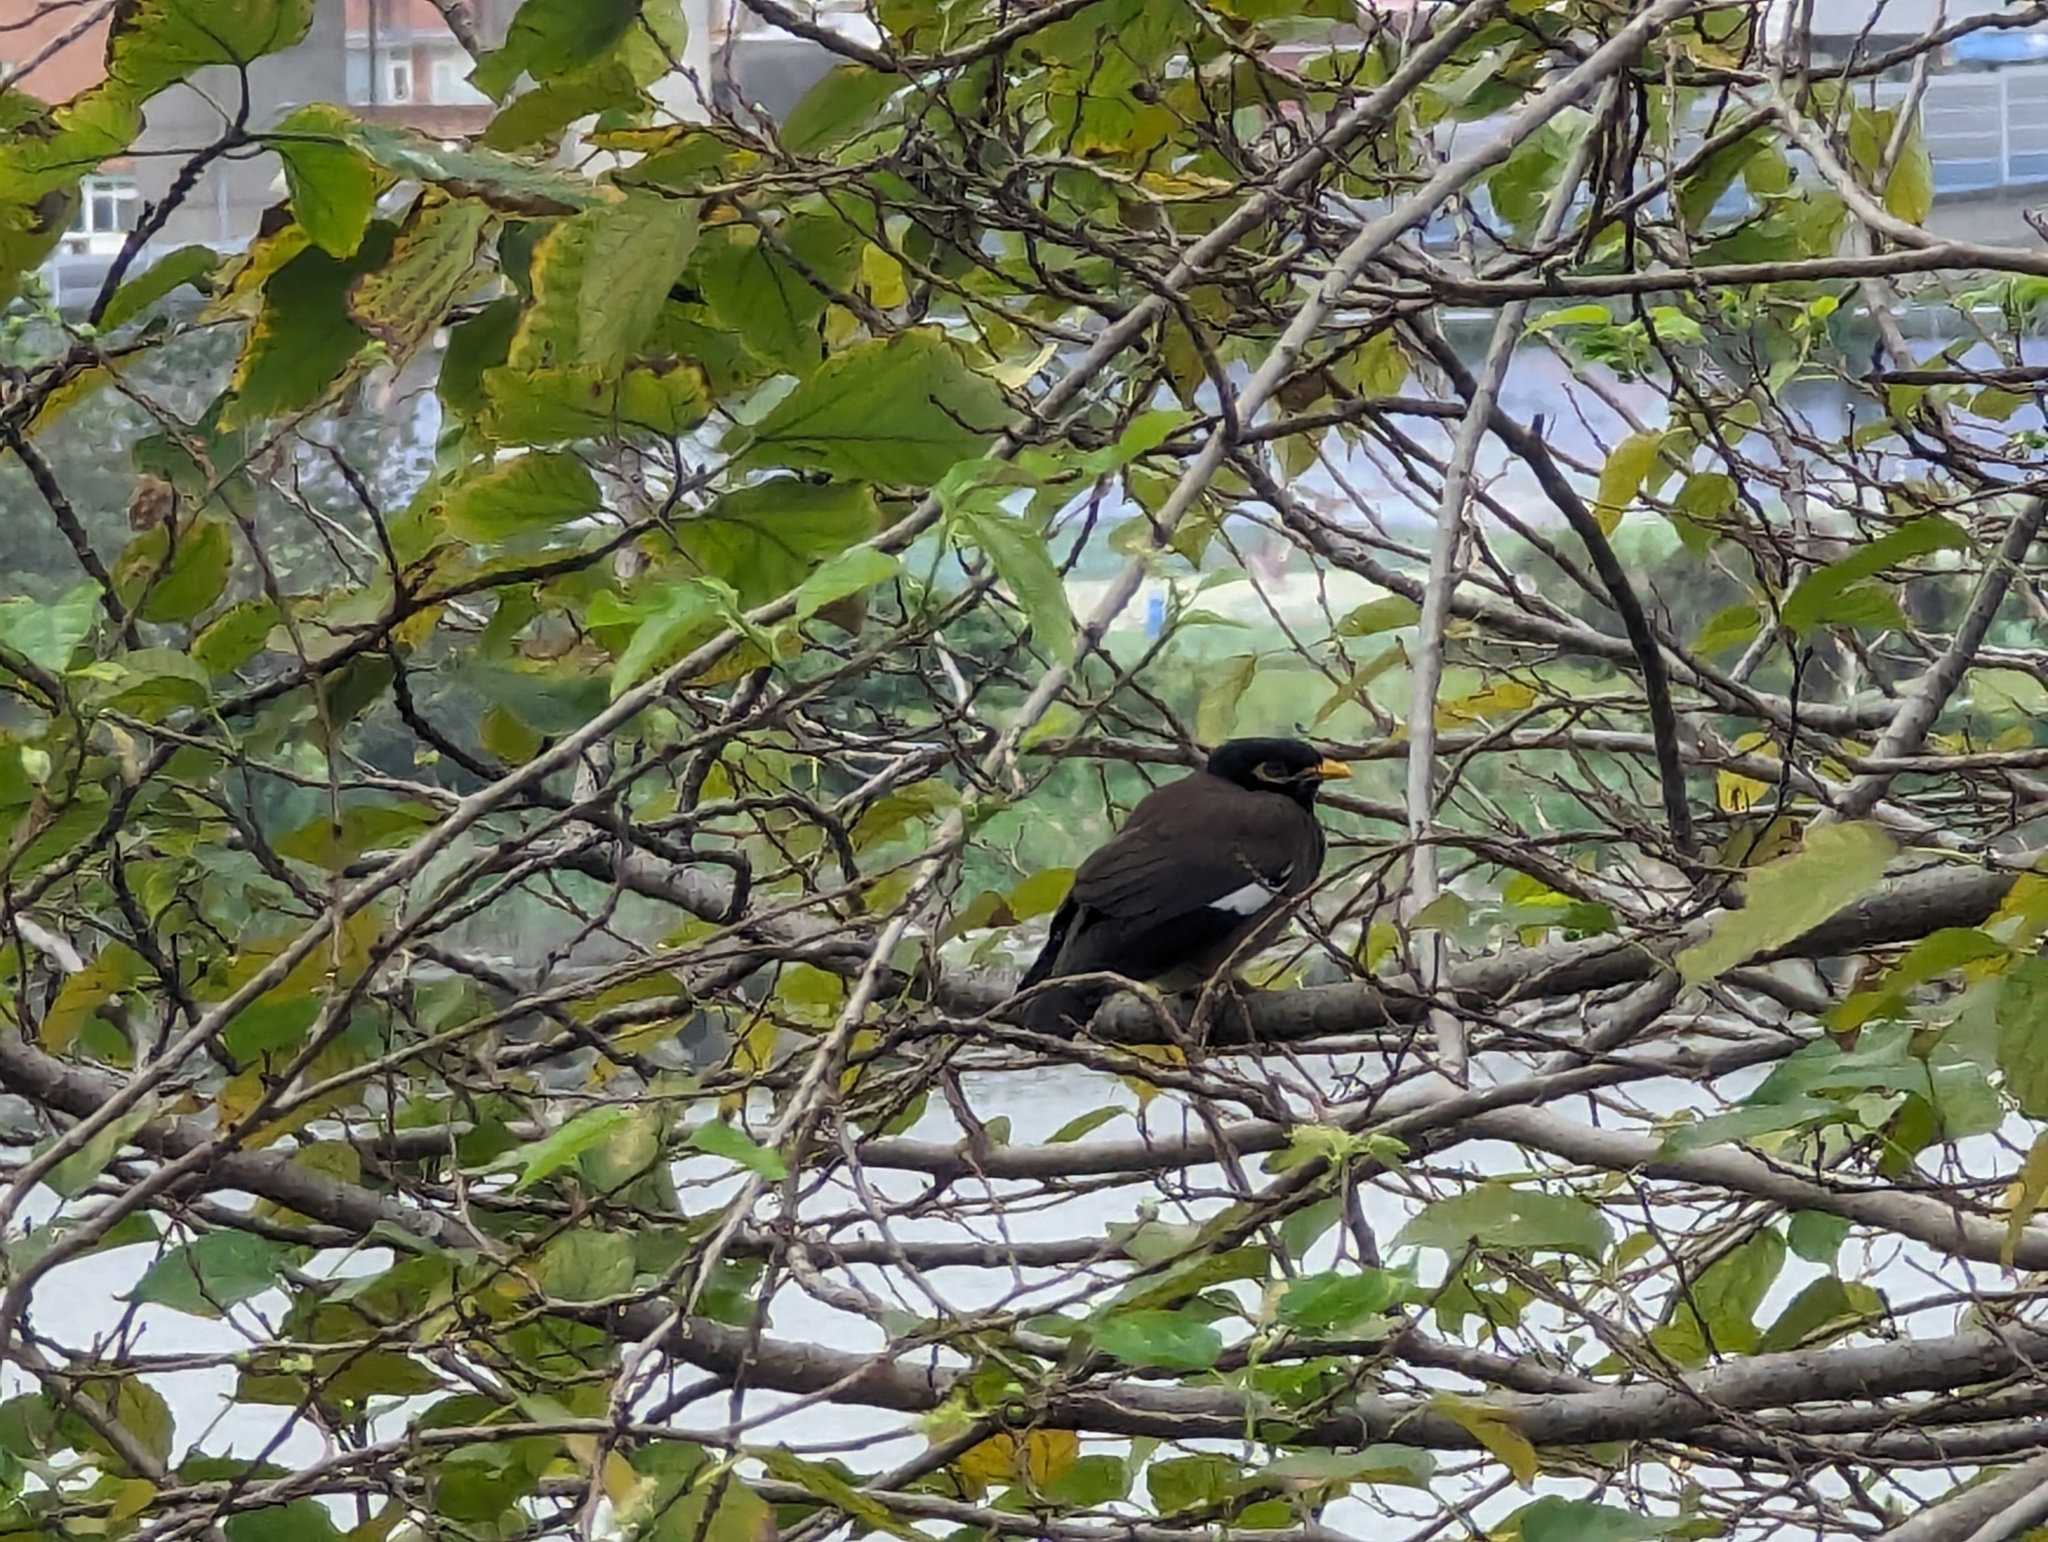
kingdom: Animalia
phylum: Chordata
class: Aves
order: Passeriformes
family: Sturnidae
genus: Acridotheres
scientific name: Acridotheres tristis
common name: Common myna
